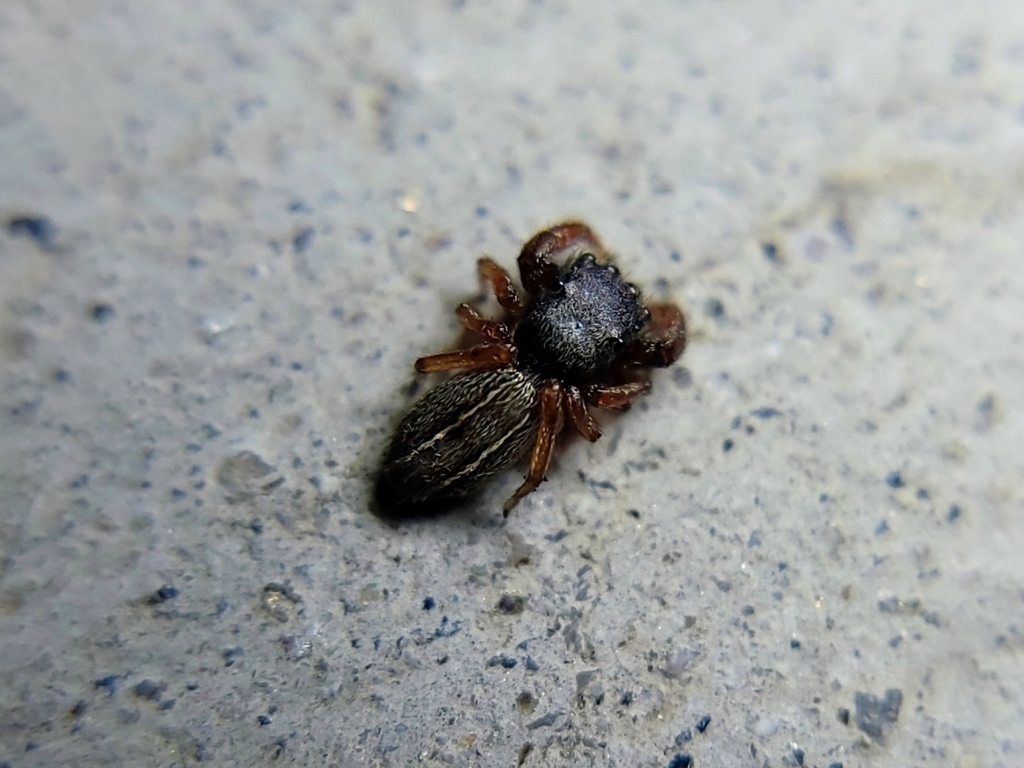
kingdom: Animalia
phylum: Arthropoda
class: Arachnida
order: Araneae
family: Salticidae
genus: Metacyrba
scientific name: Metacyrba taeniola
